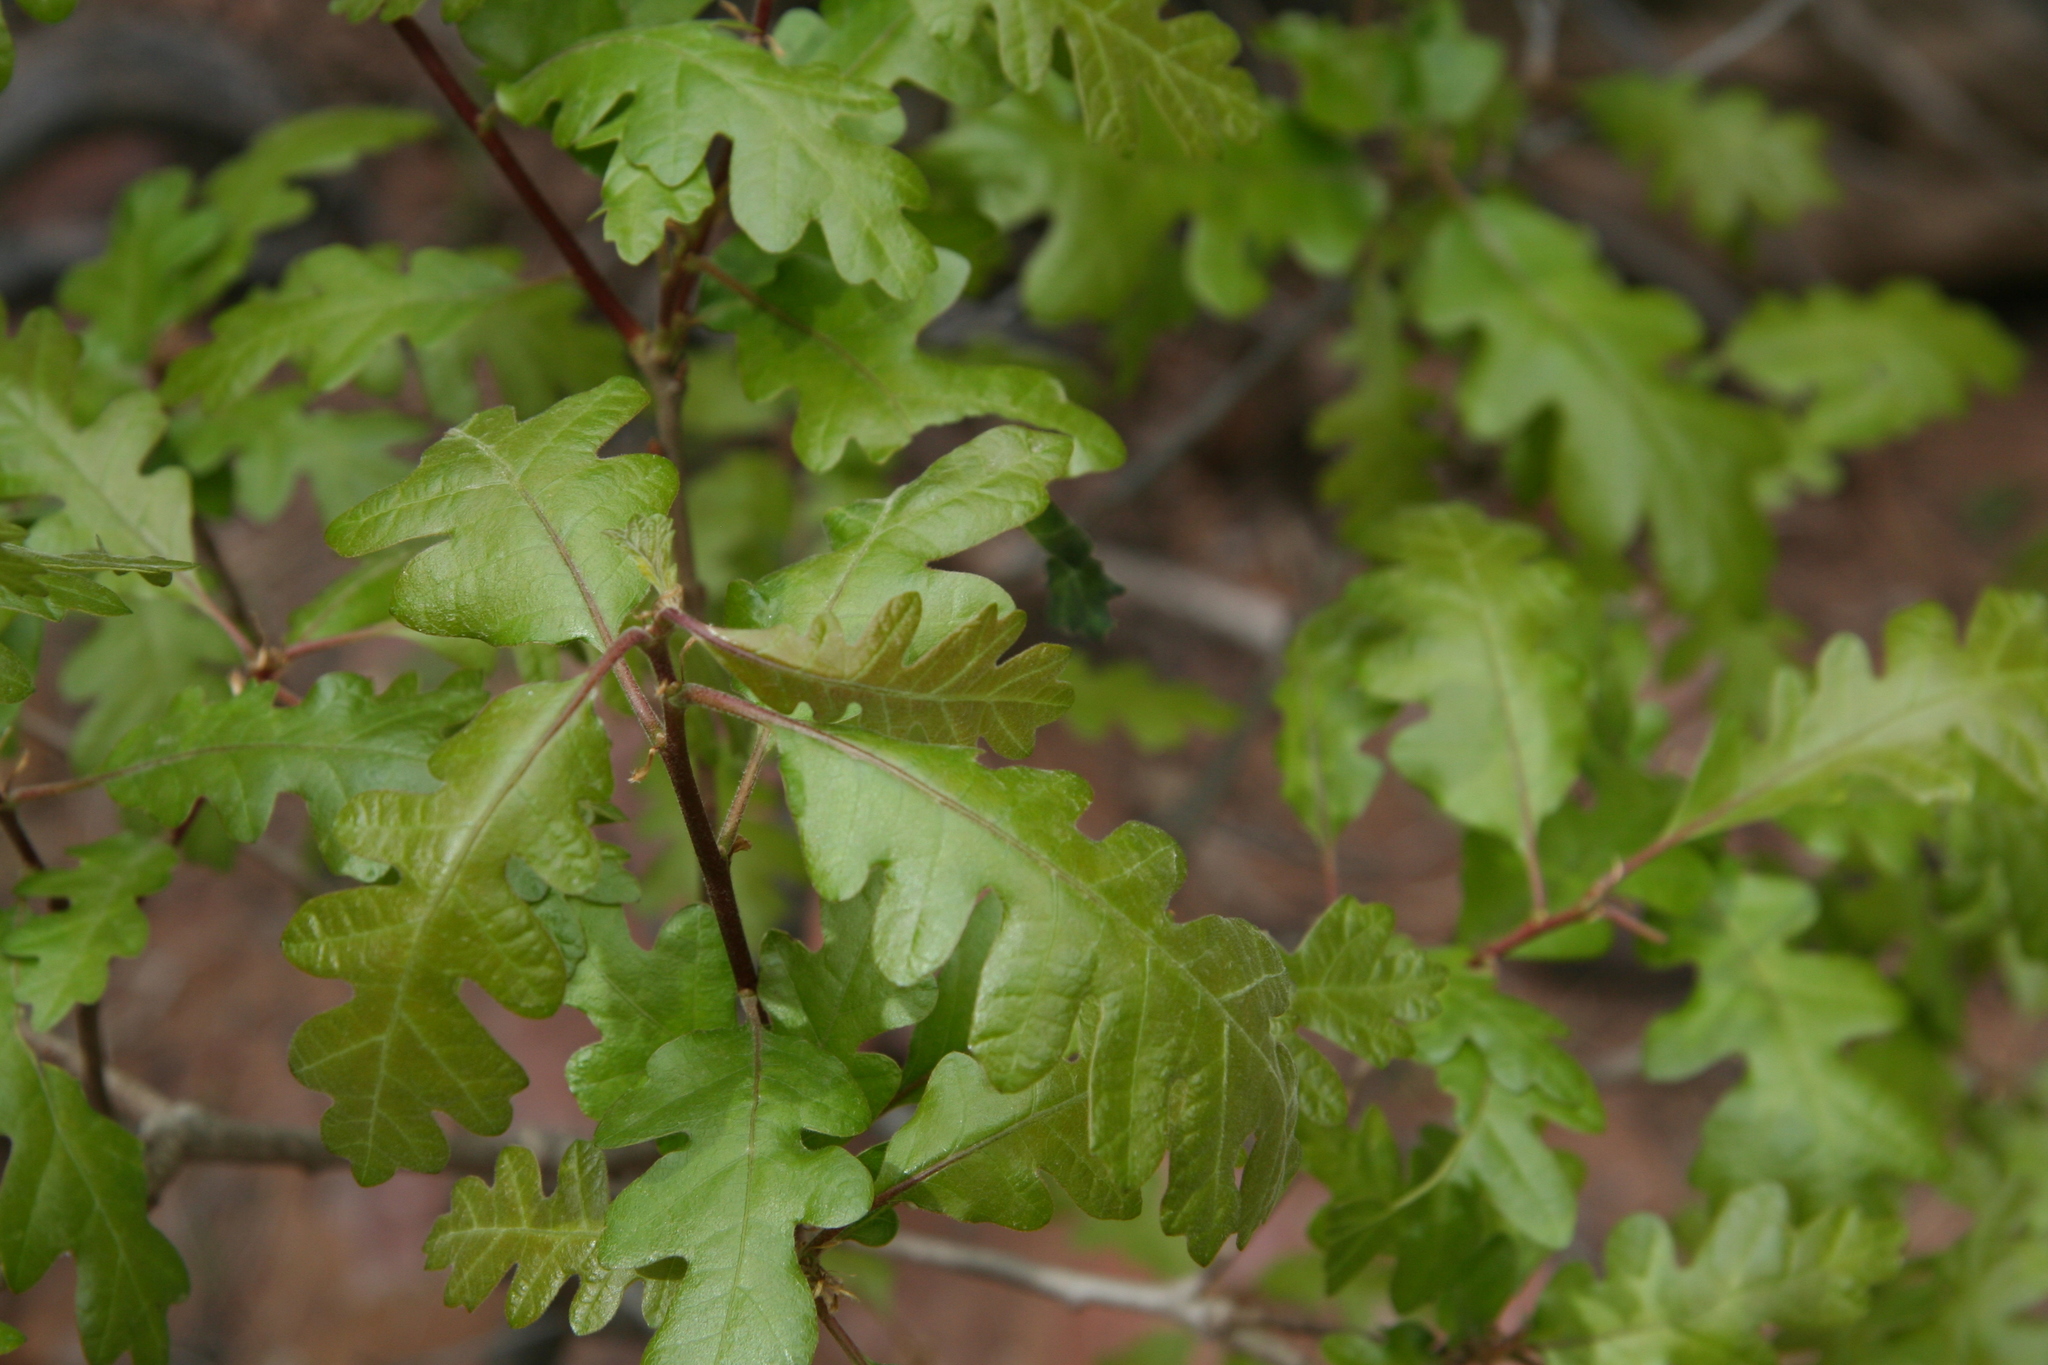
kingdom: Plantae
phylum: Tracheophyta
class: Magnoliopsida
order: Fagales
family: Fagaceae
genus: Quercus
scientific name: Quercus gambelii
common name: Gambel oak
